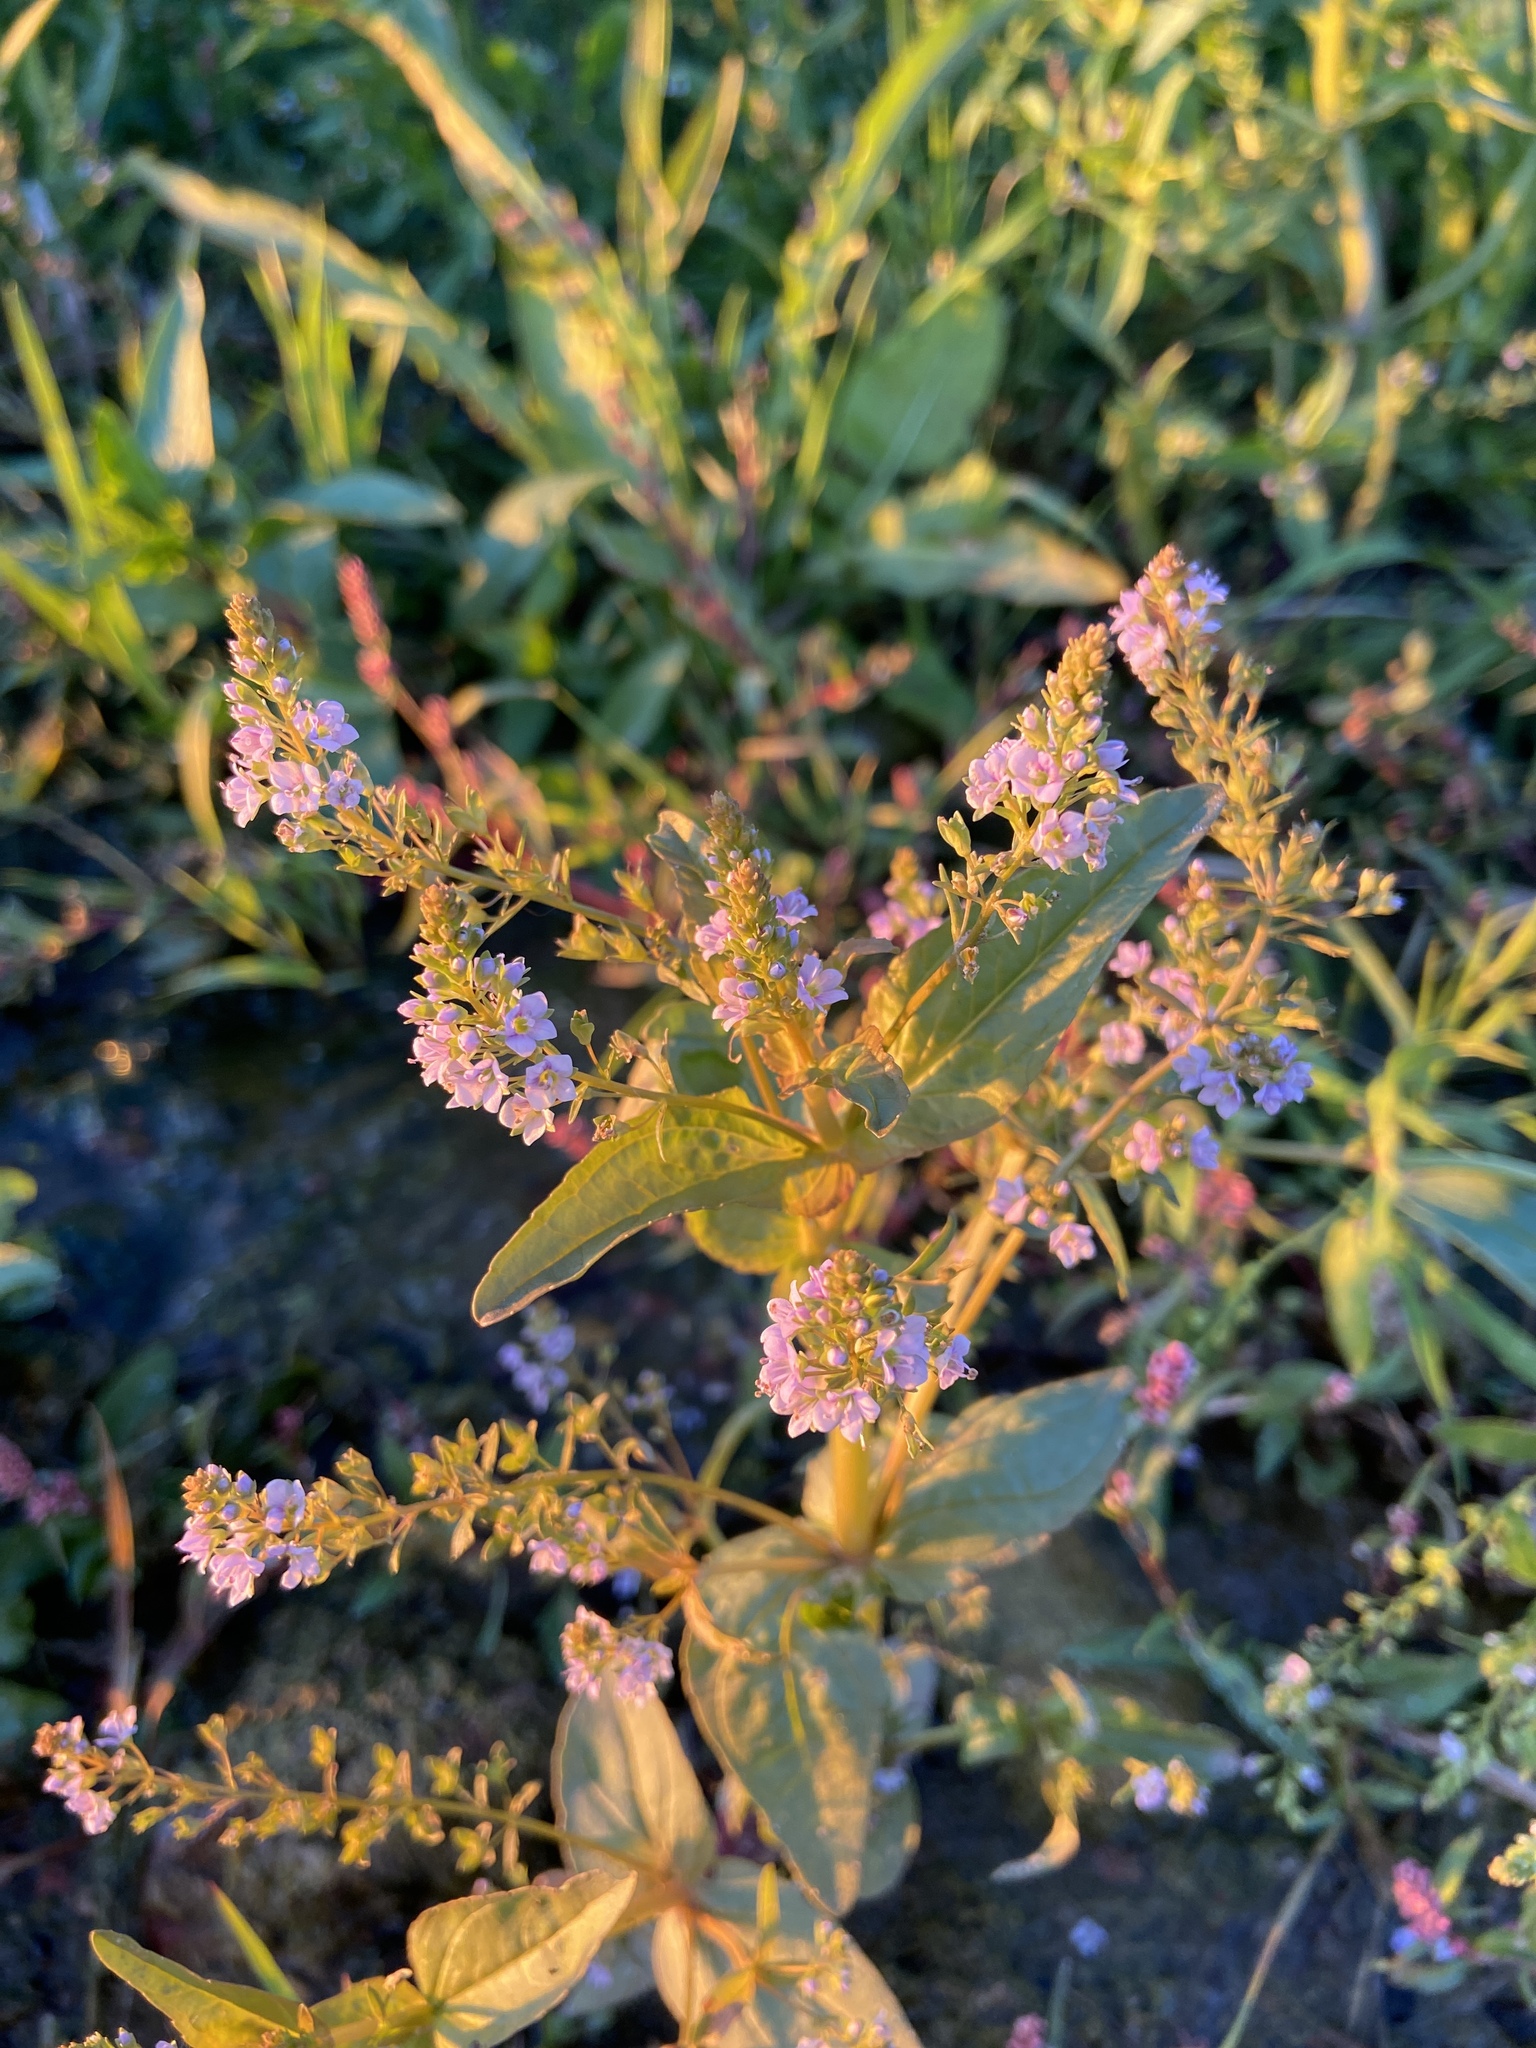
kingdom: Plantae
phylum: Tracheophyta
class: Magnoliopsida
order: Lamiales
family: Plantaginaceae
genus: Veronica
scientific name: Veronica anagallis-aquatica
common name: Water speedwell
